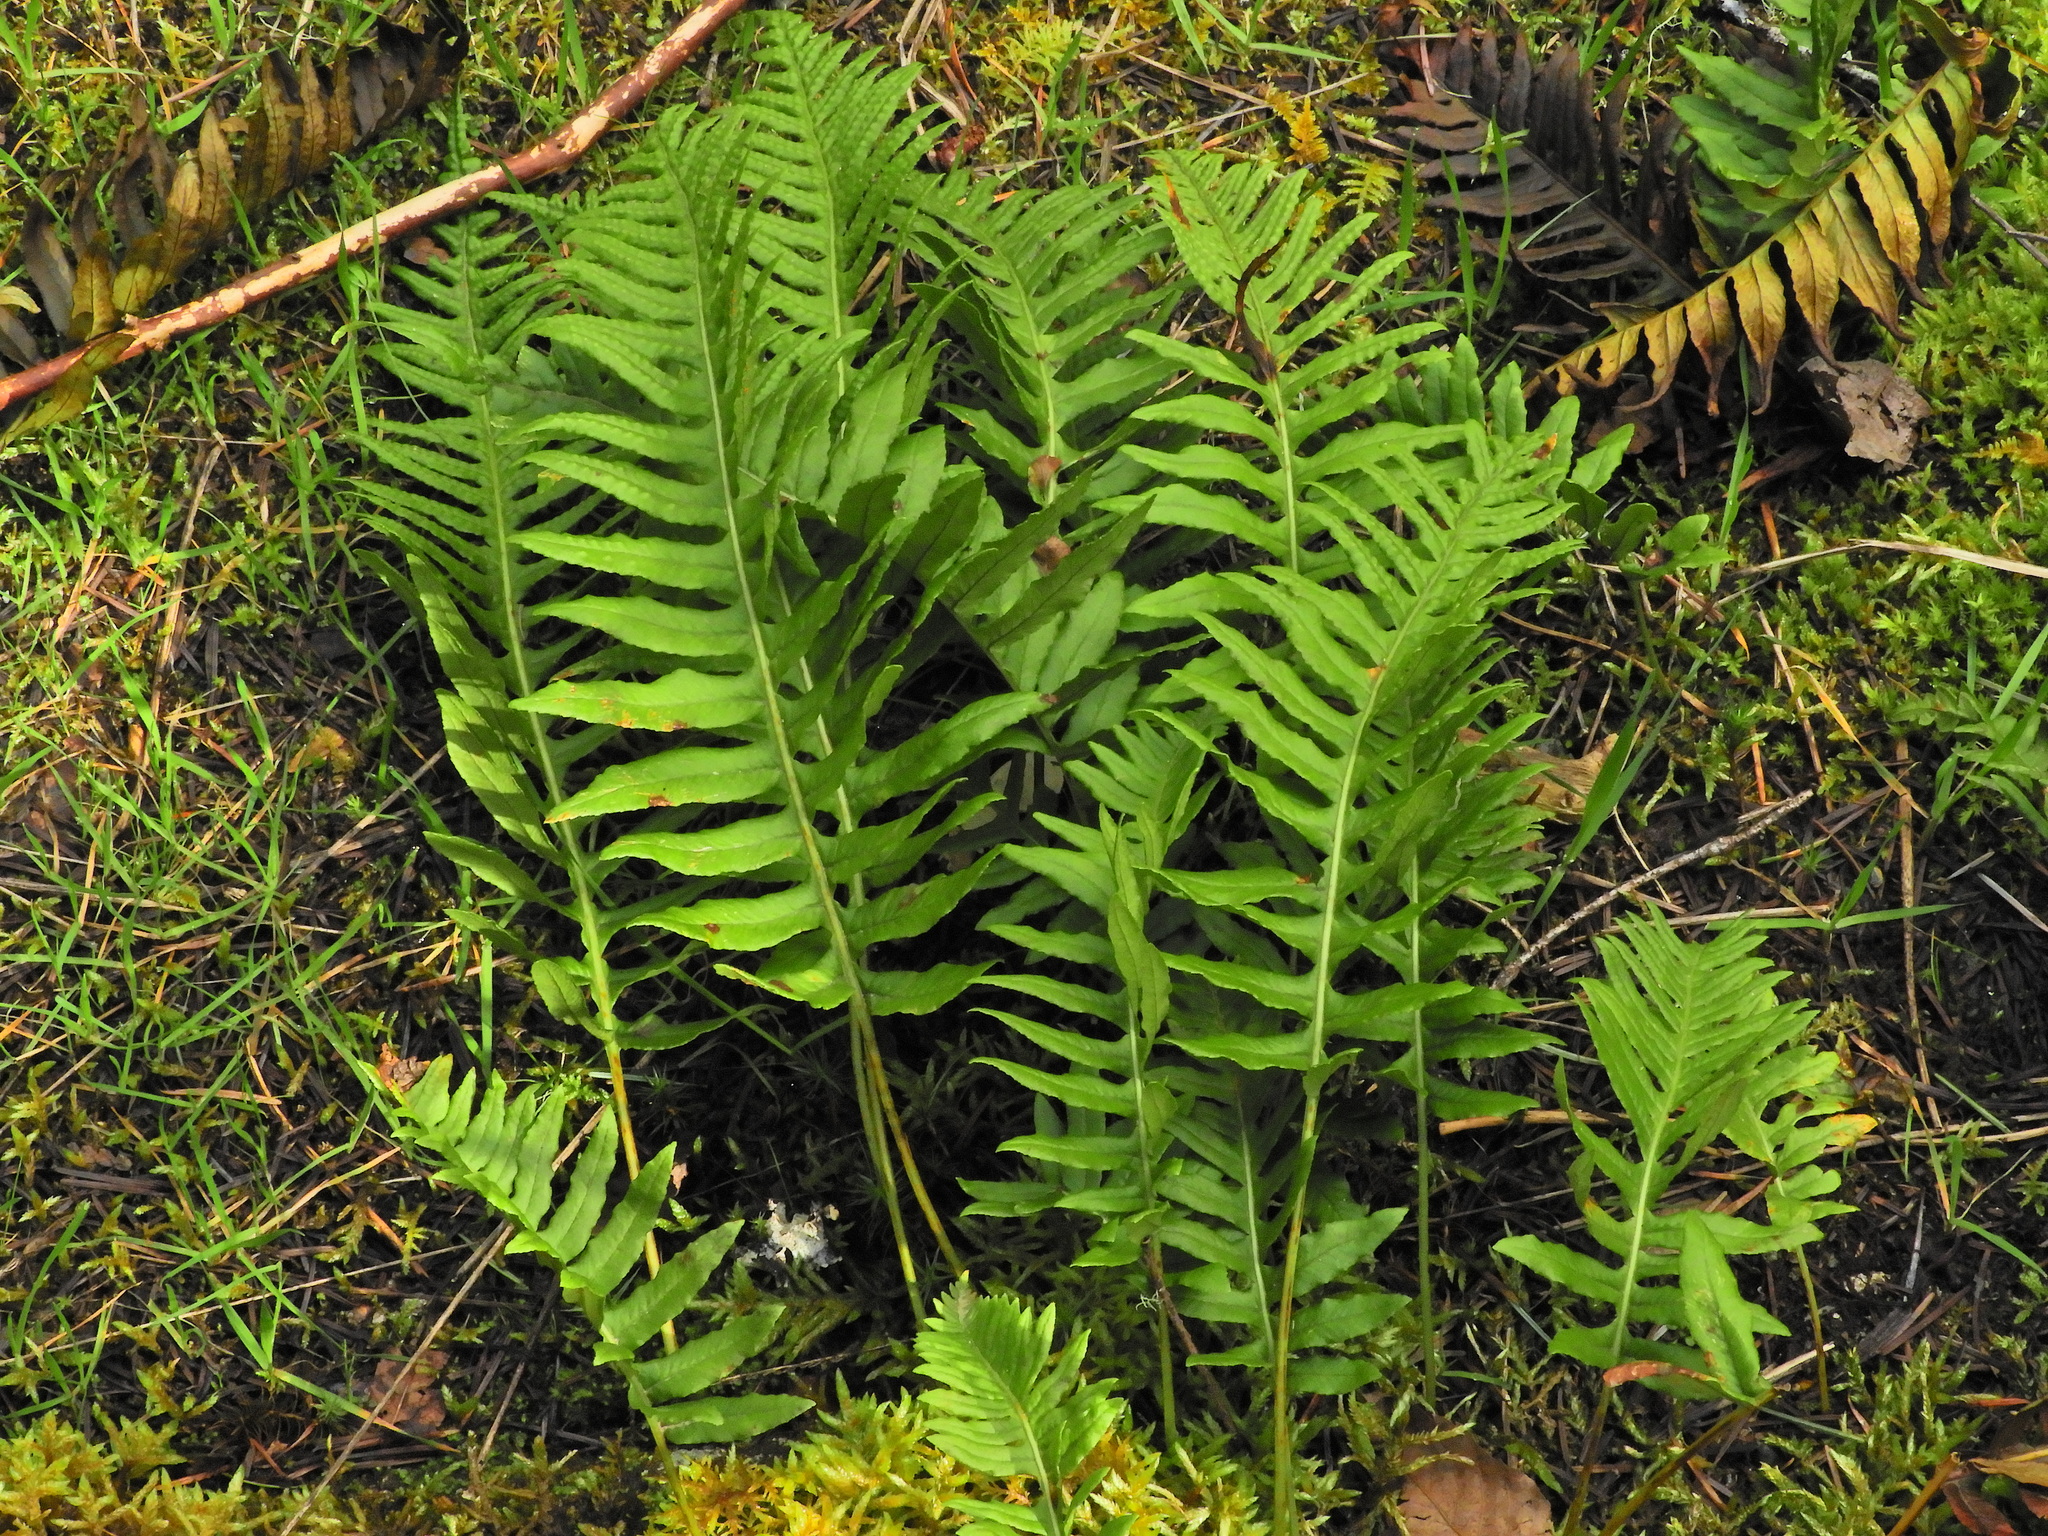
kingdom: Plantae
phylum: Tracheophyta
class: Polypodiopsida
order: Polypodiales
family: Polypodiaceae
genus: Polypodium
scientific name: Polypodium glycyrrhiza
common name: Licorice fern
